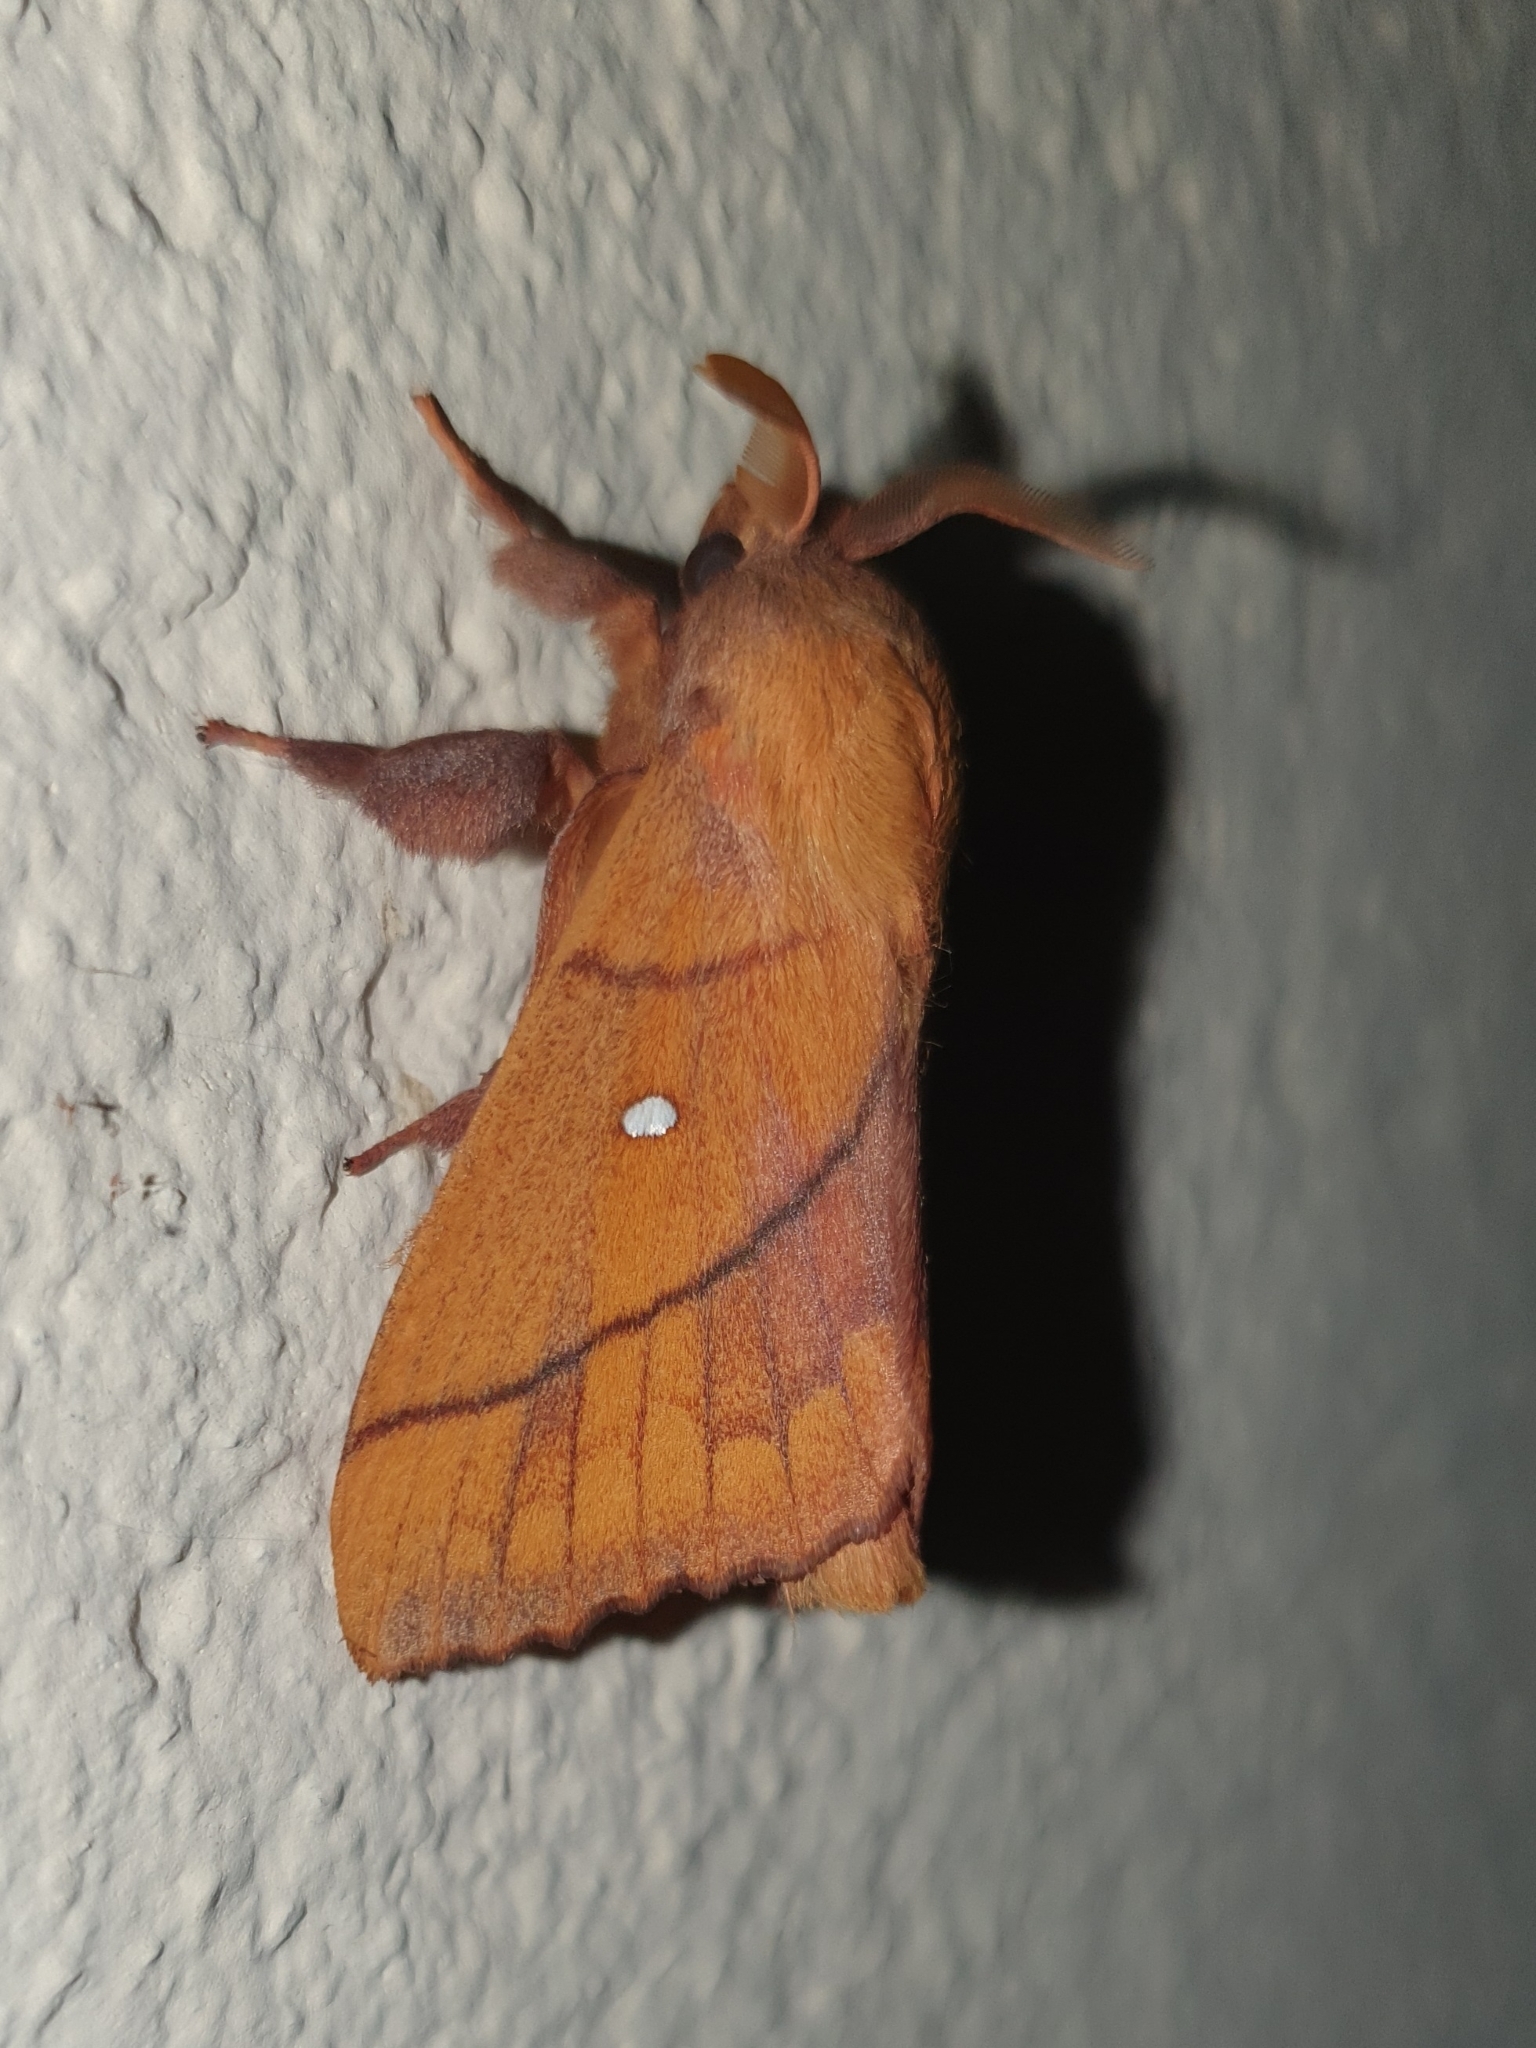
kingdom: Animalia
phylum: Arthropoda
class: Insecta
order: Lepidoptera
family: Lasiocampidae
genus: Odonestis
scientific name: Odonestis pruni
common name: Plum lappet
